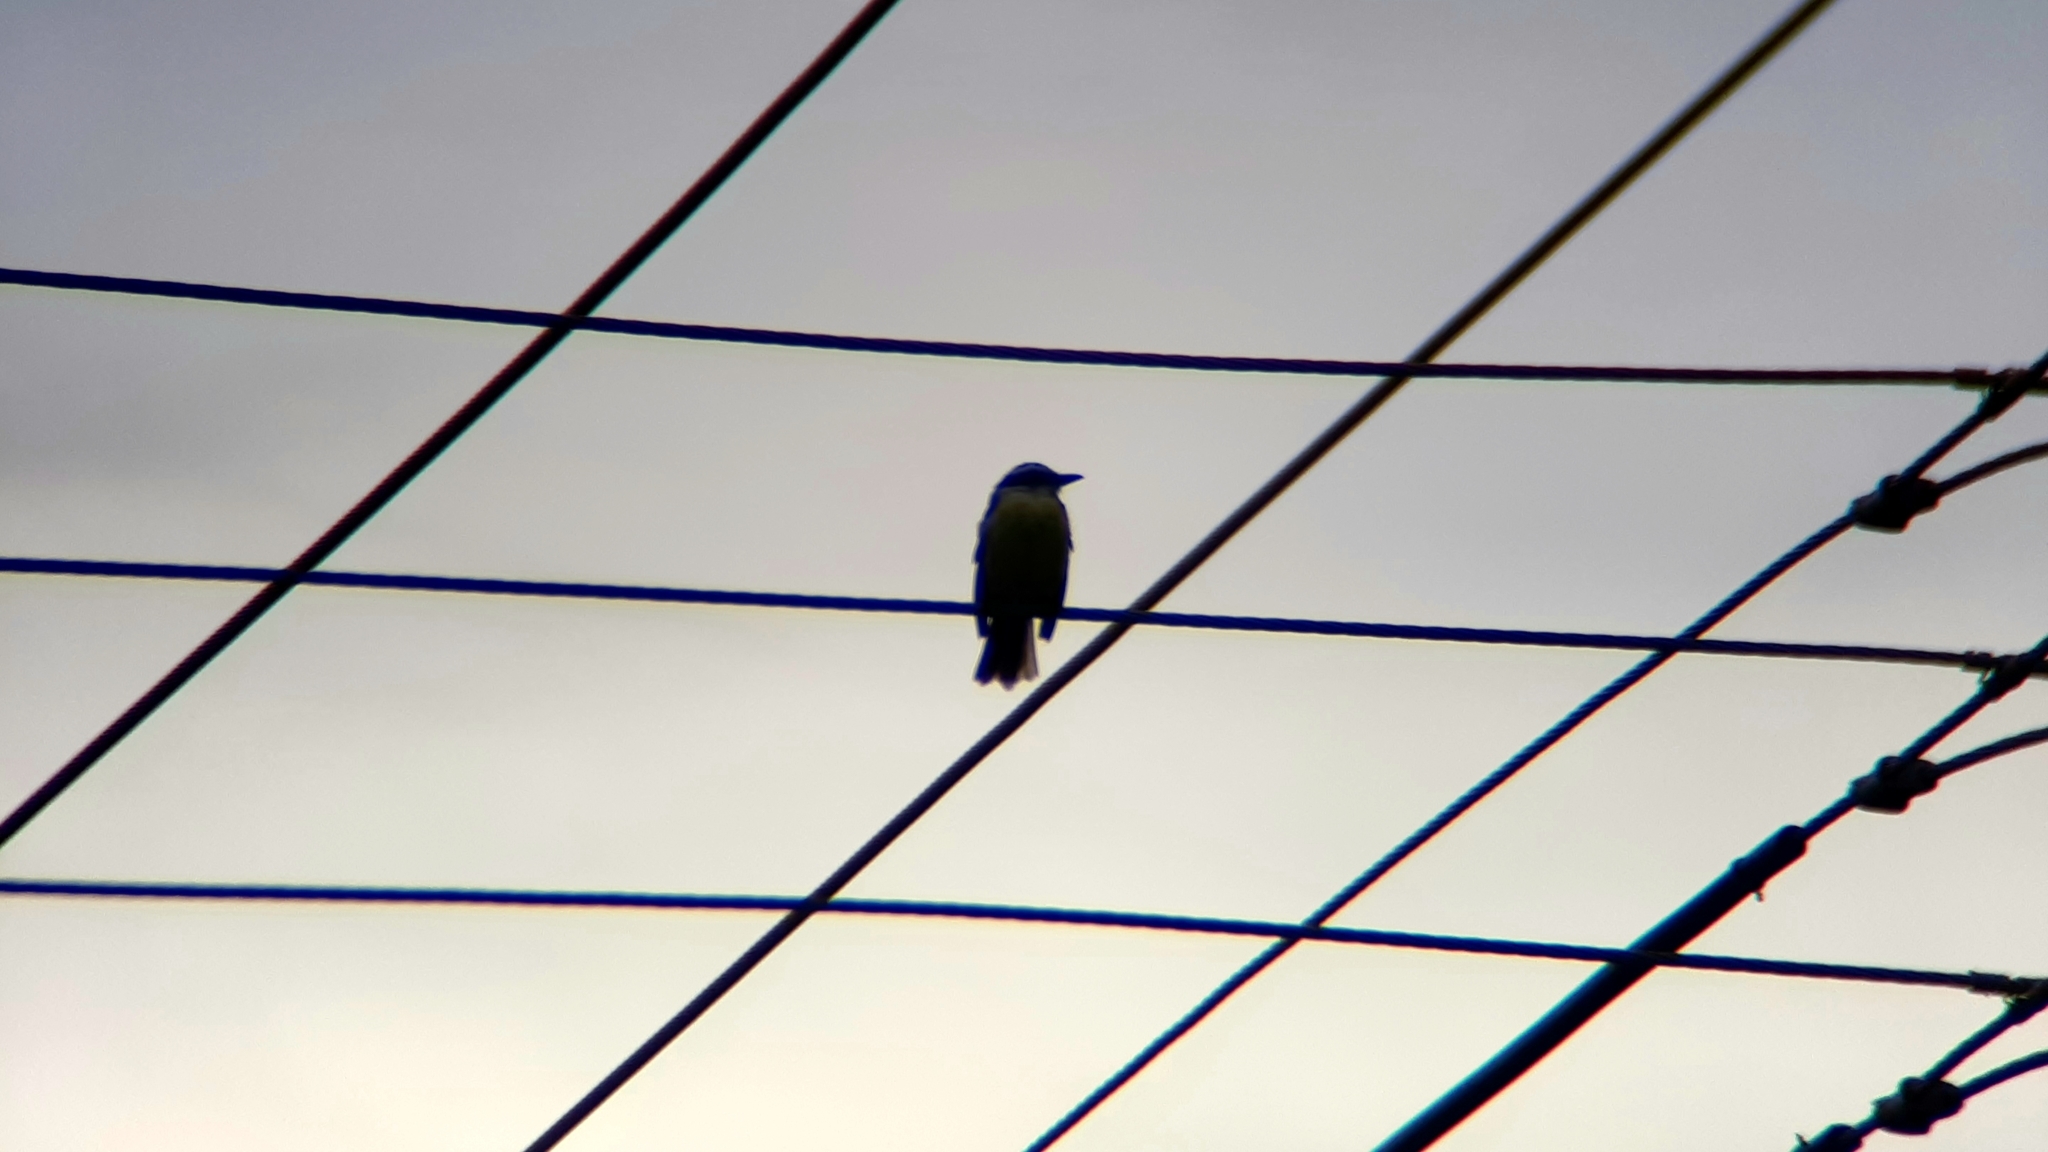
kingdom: Animalia
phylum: Chordata
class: Aves
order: Passeriformes
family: Tyrannidae
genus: Pitangus
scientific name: Pitangus sulphuratus
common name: Great kiskadee
